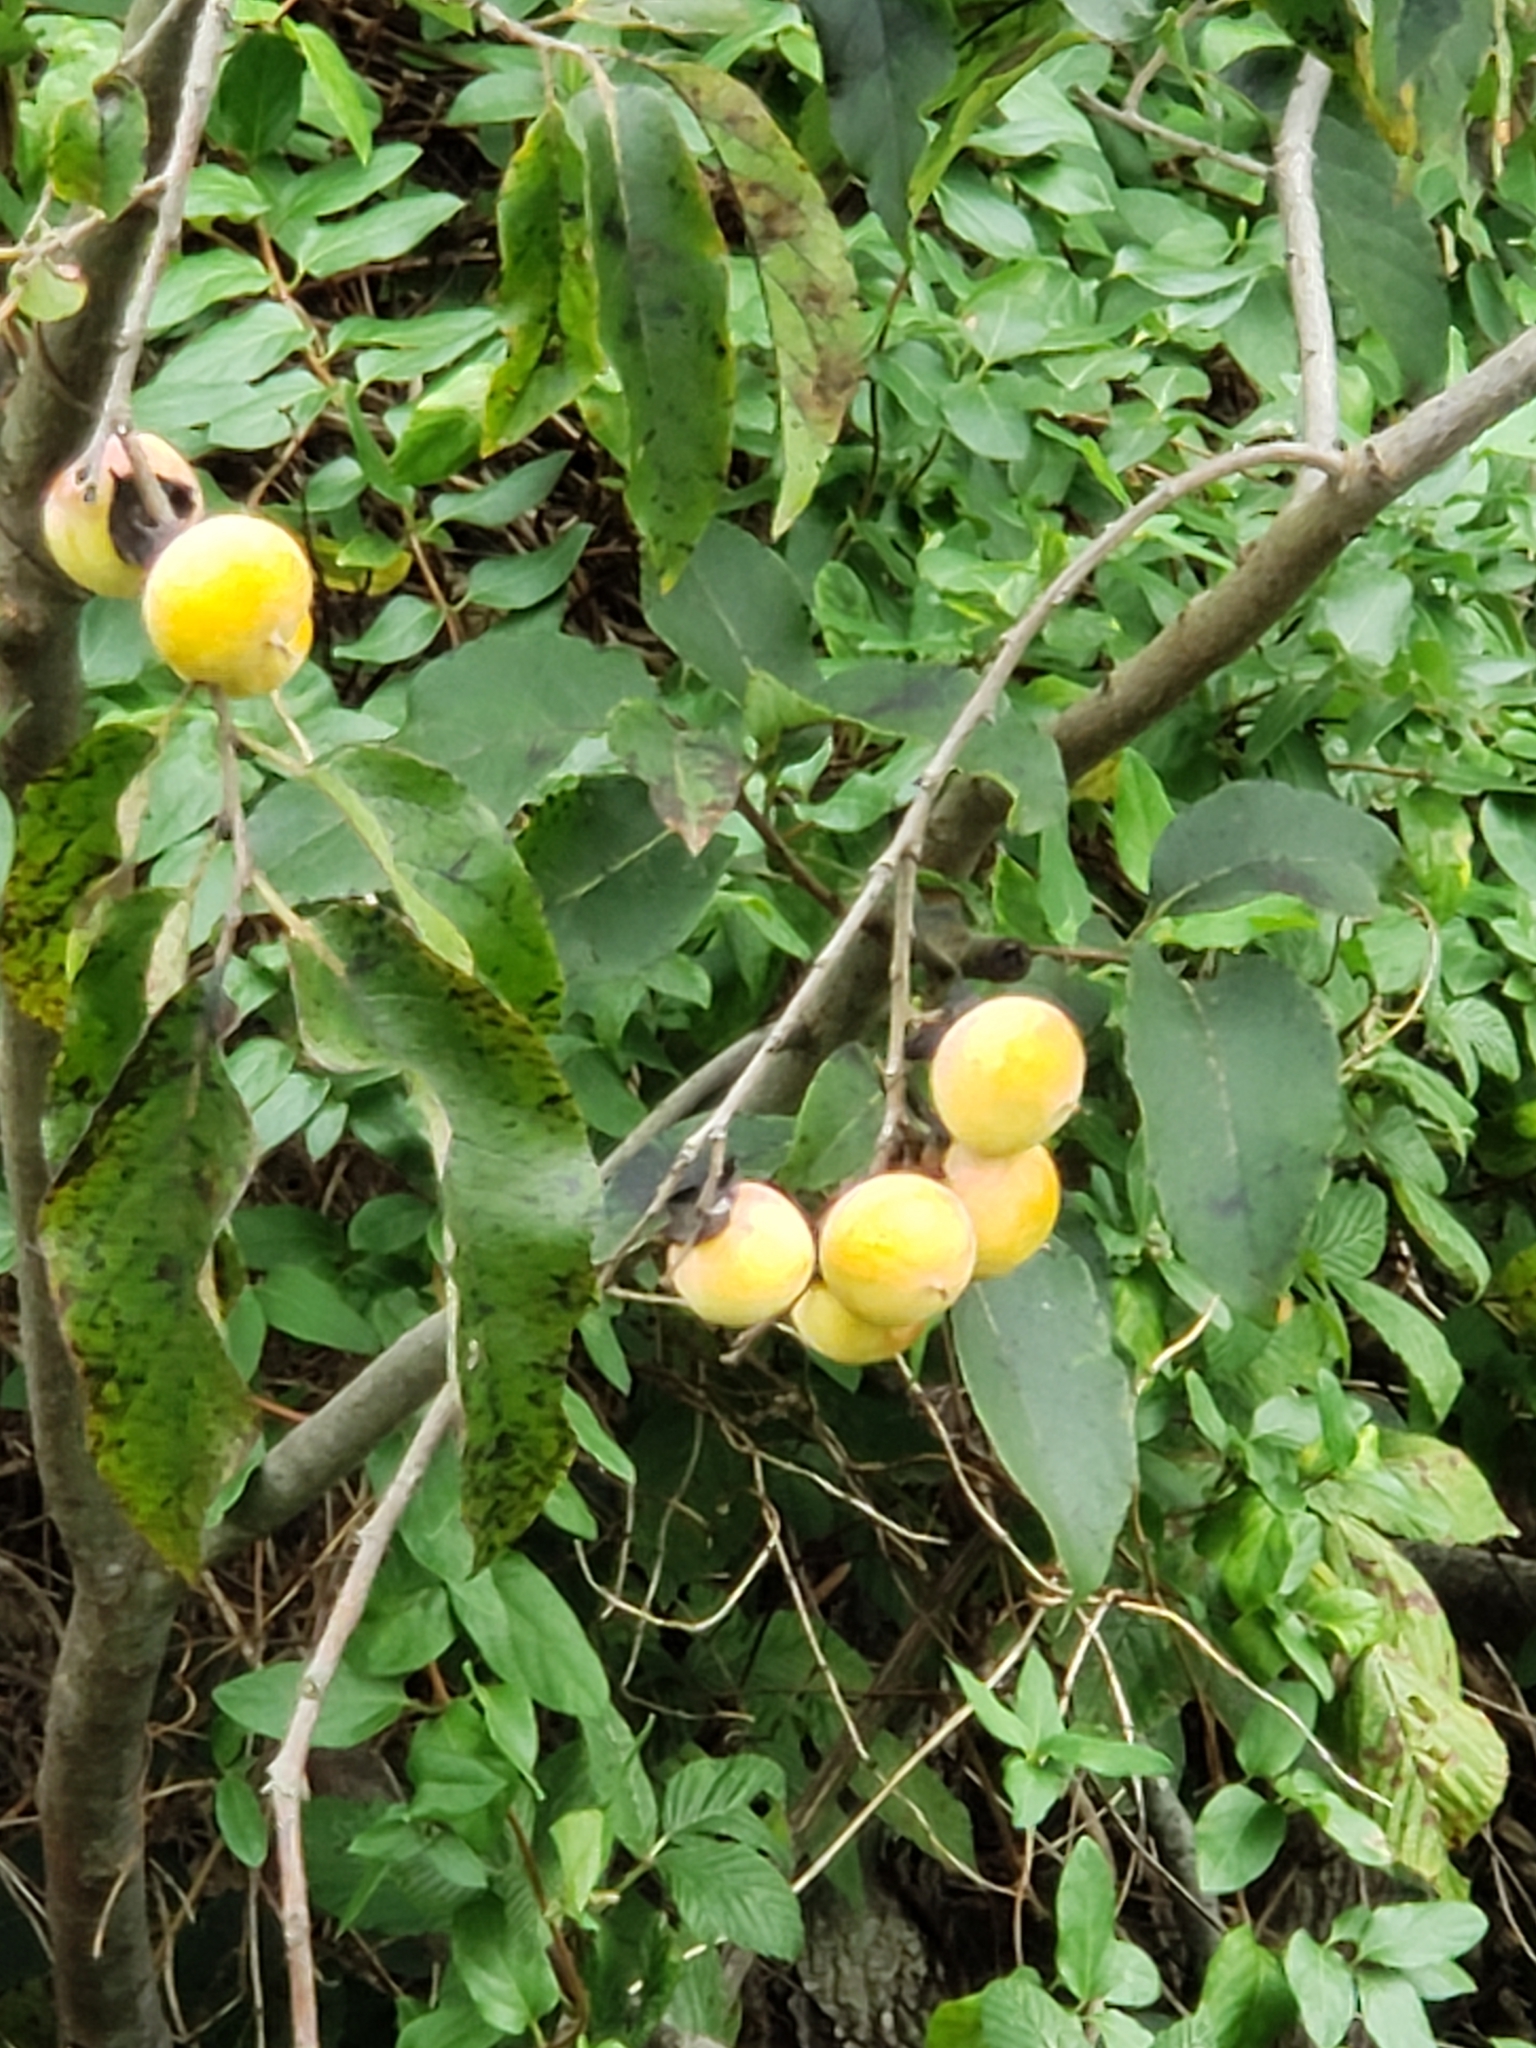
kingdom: Plantae
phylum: Tracheophyta
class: Magnoliopsida
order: Ericales
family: Ebenaceae
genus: Diospyros
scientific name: Diospyros virginiana
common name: Persimmon
